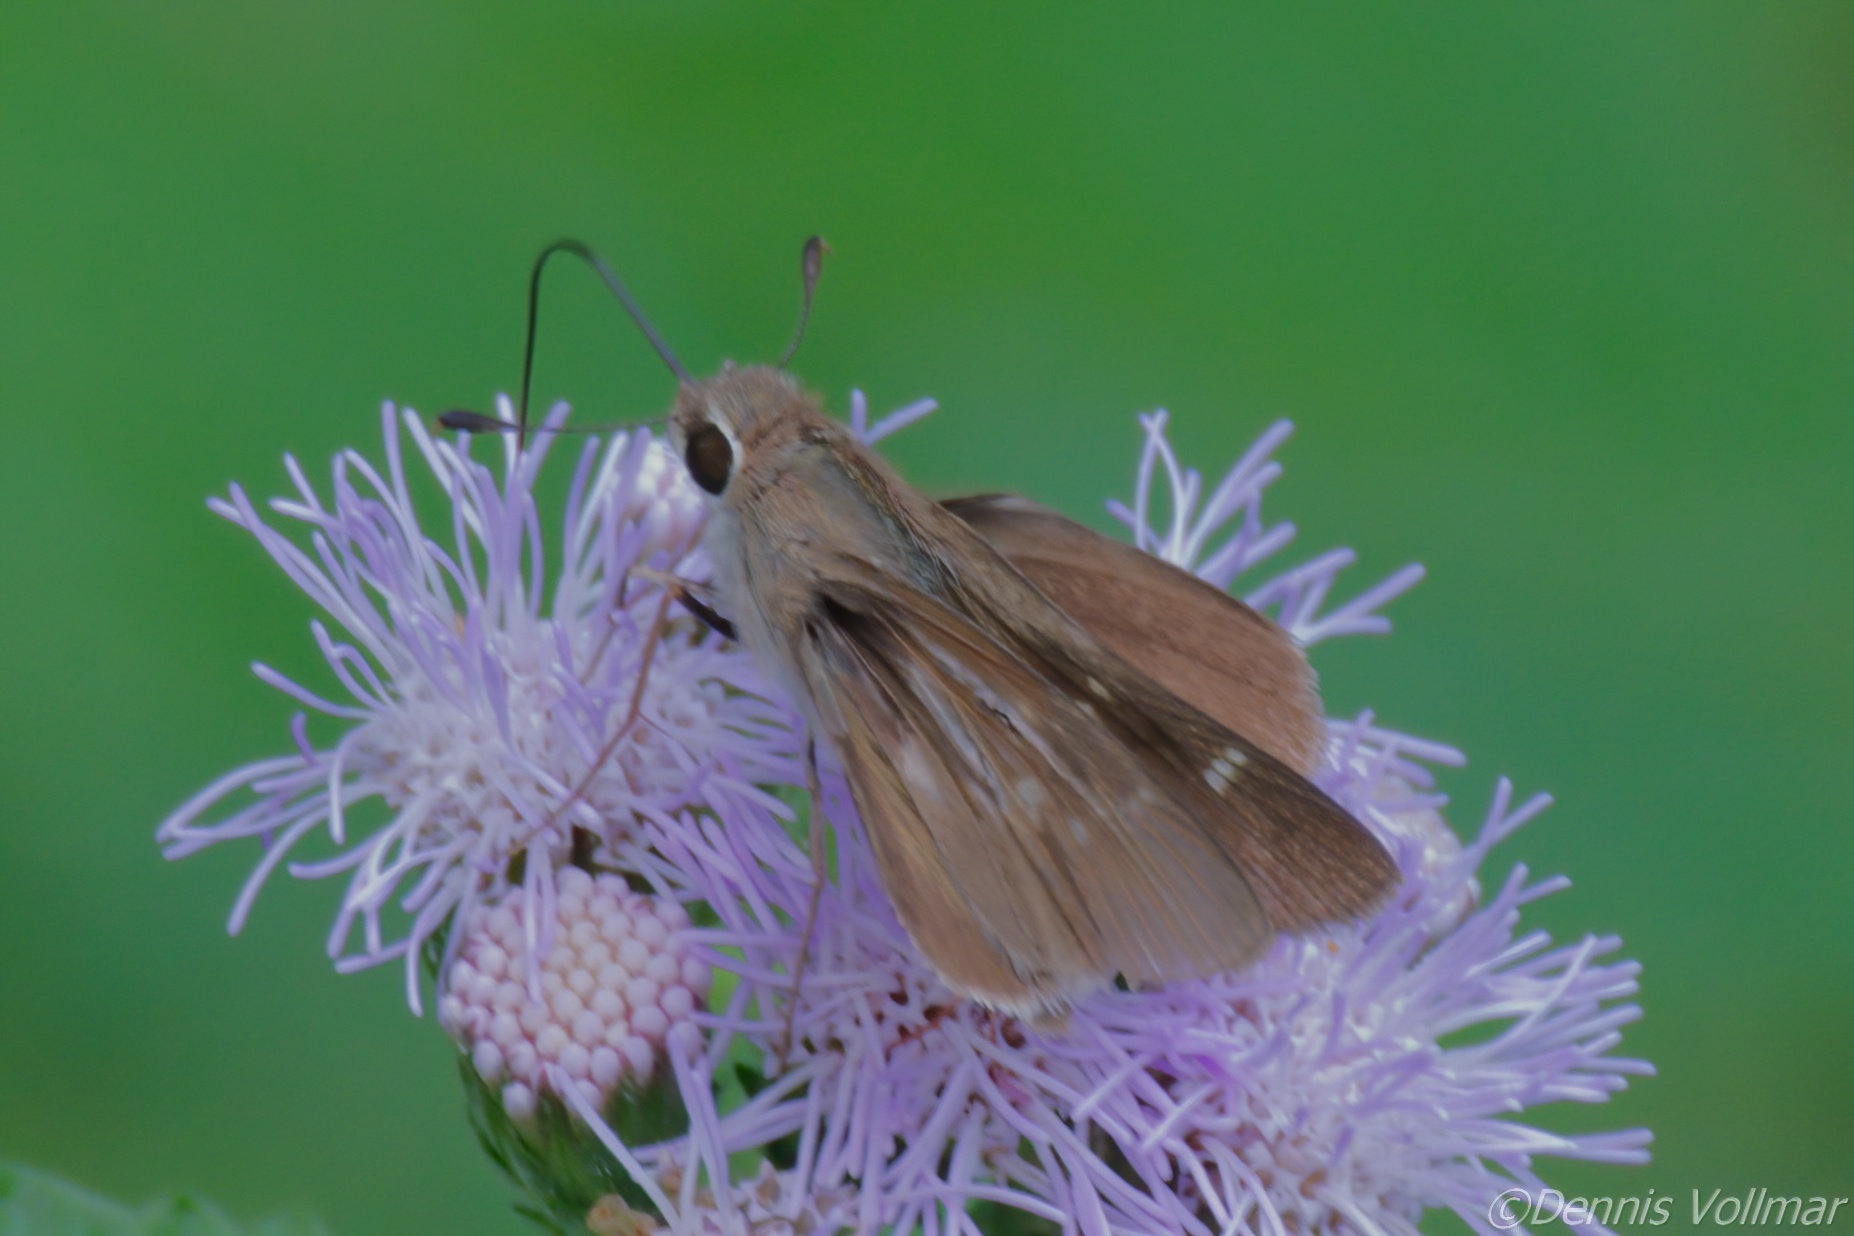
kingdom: Animalia
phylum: Arthropoda
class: Insecta
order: Lepidoptera
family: Hesperiidae
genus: Lerodea
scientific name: Lerodea eufala
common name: Eufala skipper
